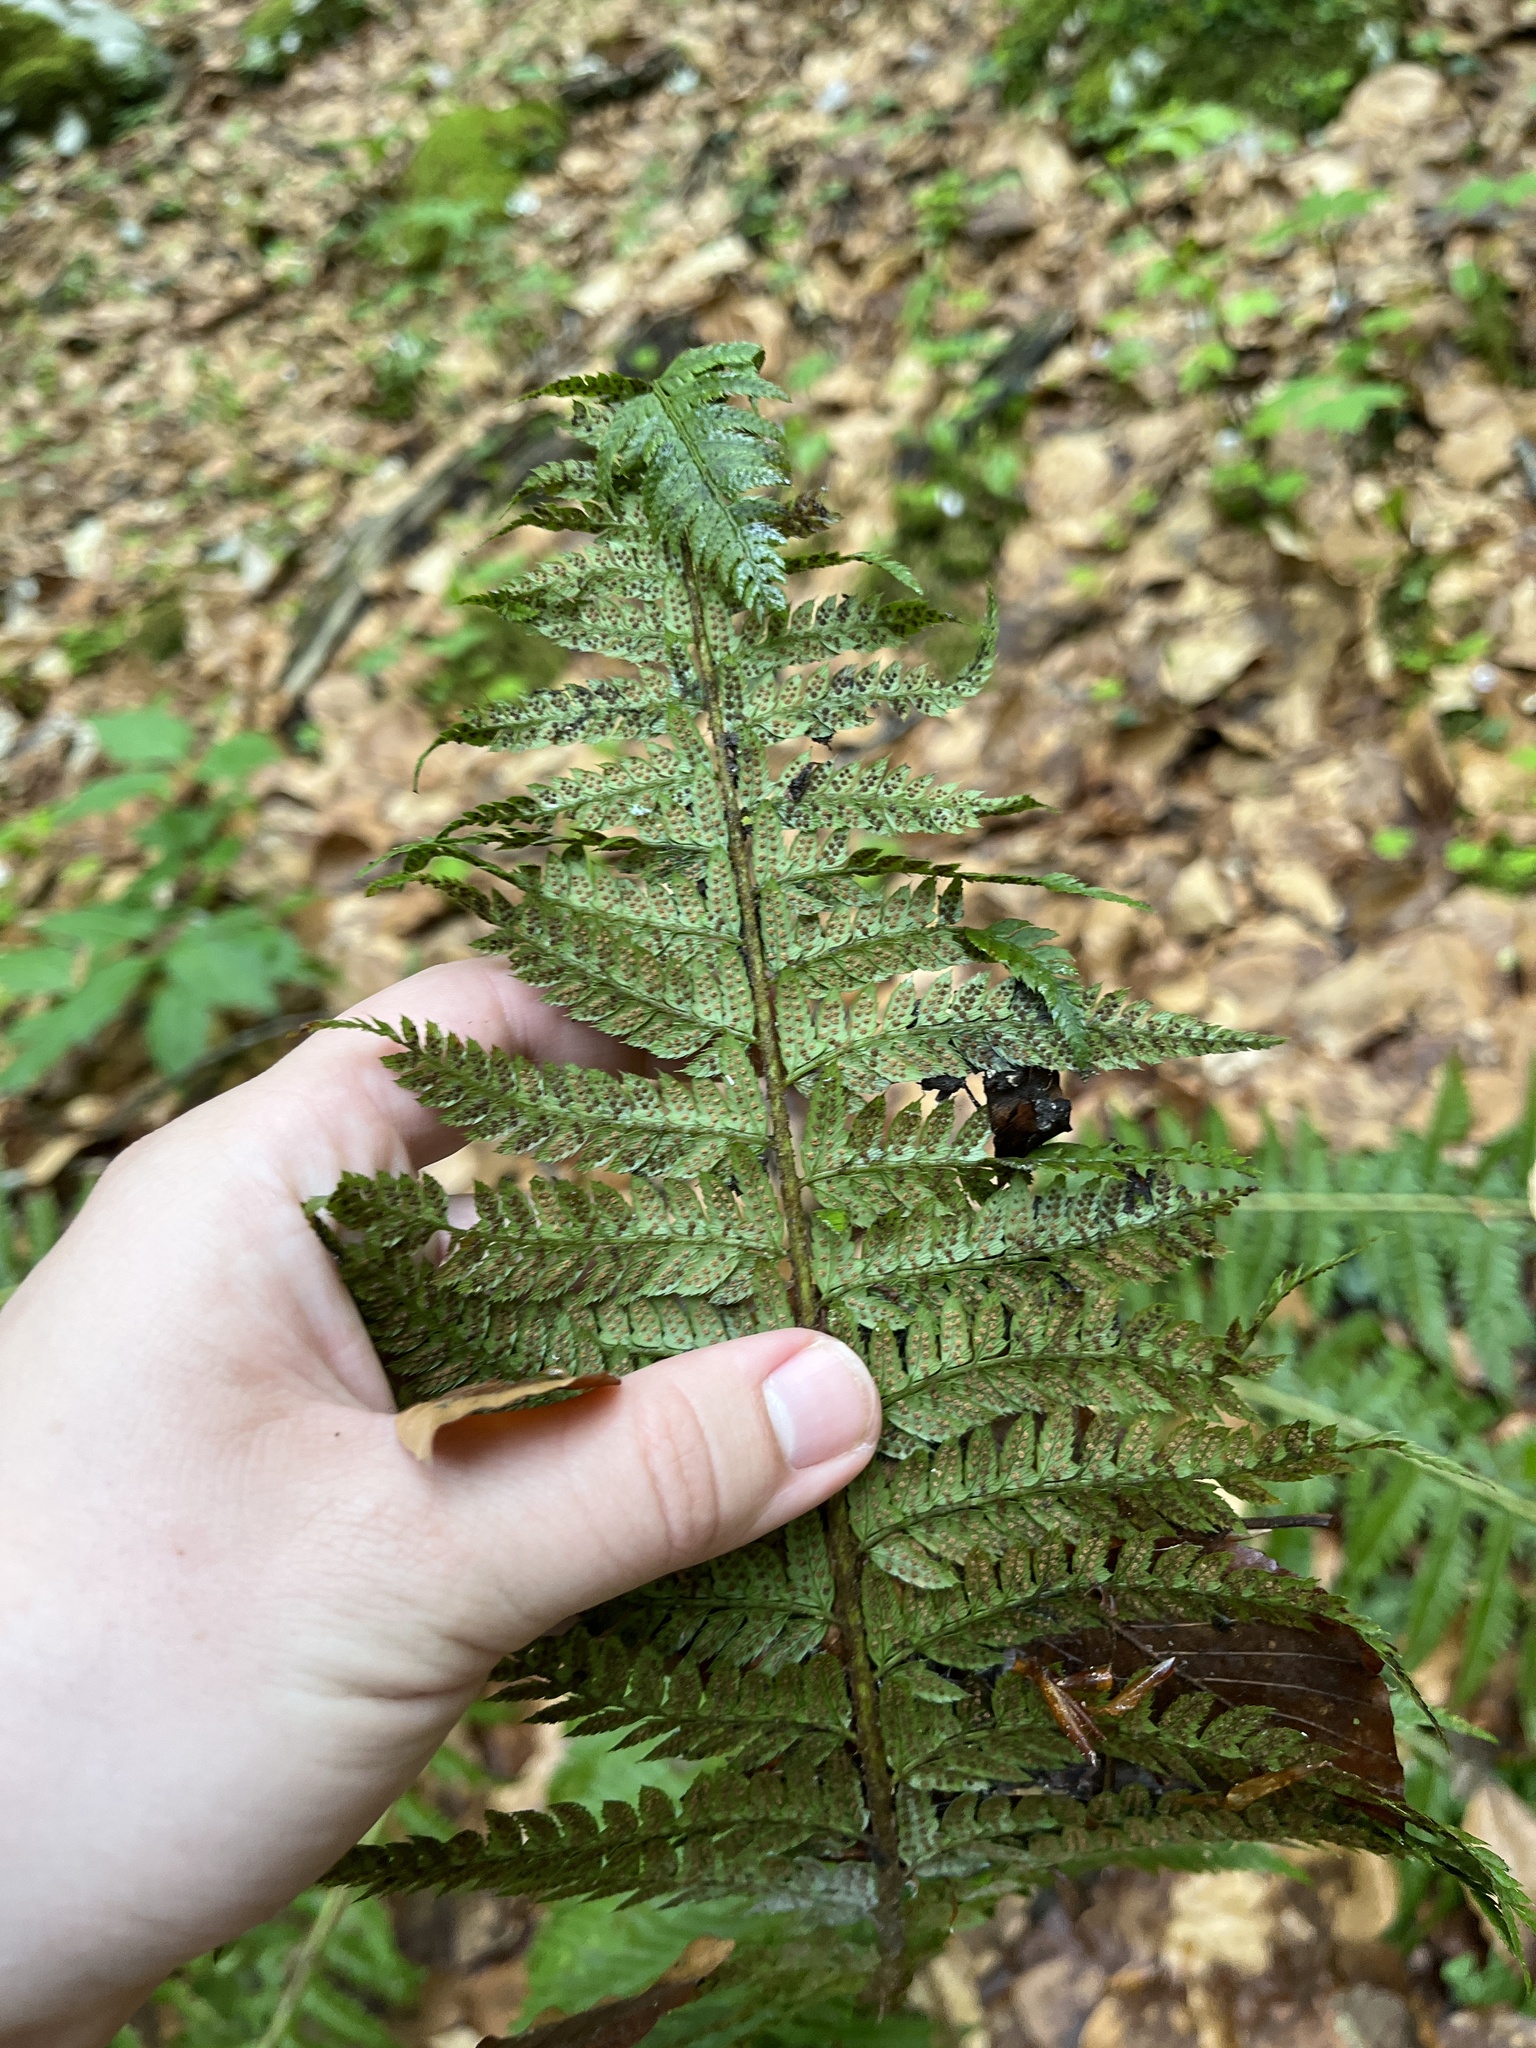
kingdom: Plantae
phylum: Tracheophyta
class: Polypodiopsida
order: Polypodiales
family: Dryopteridaceae
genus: Polystichum
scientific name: Polystichum aculeatum
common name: Hard shield-fern
